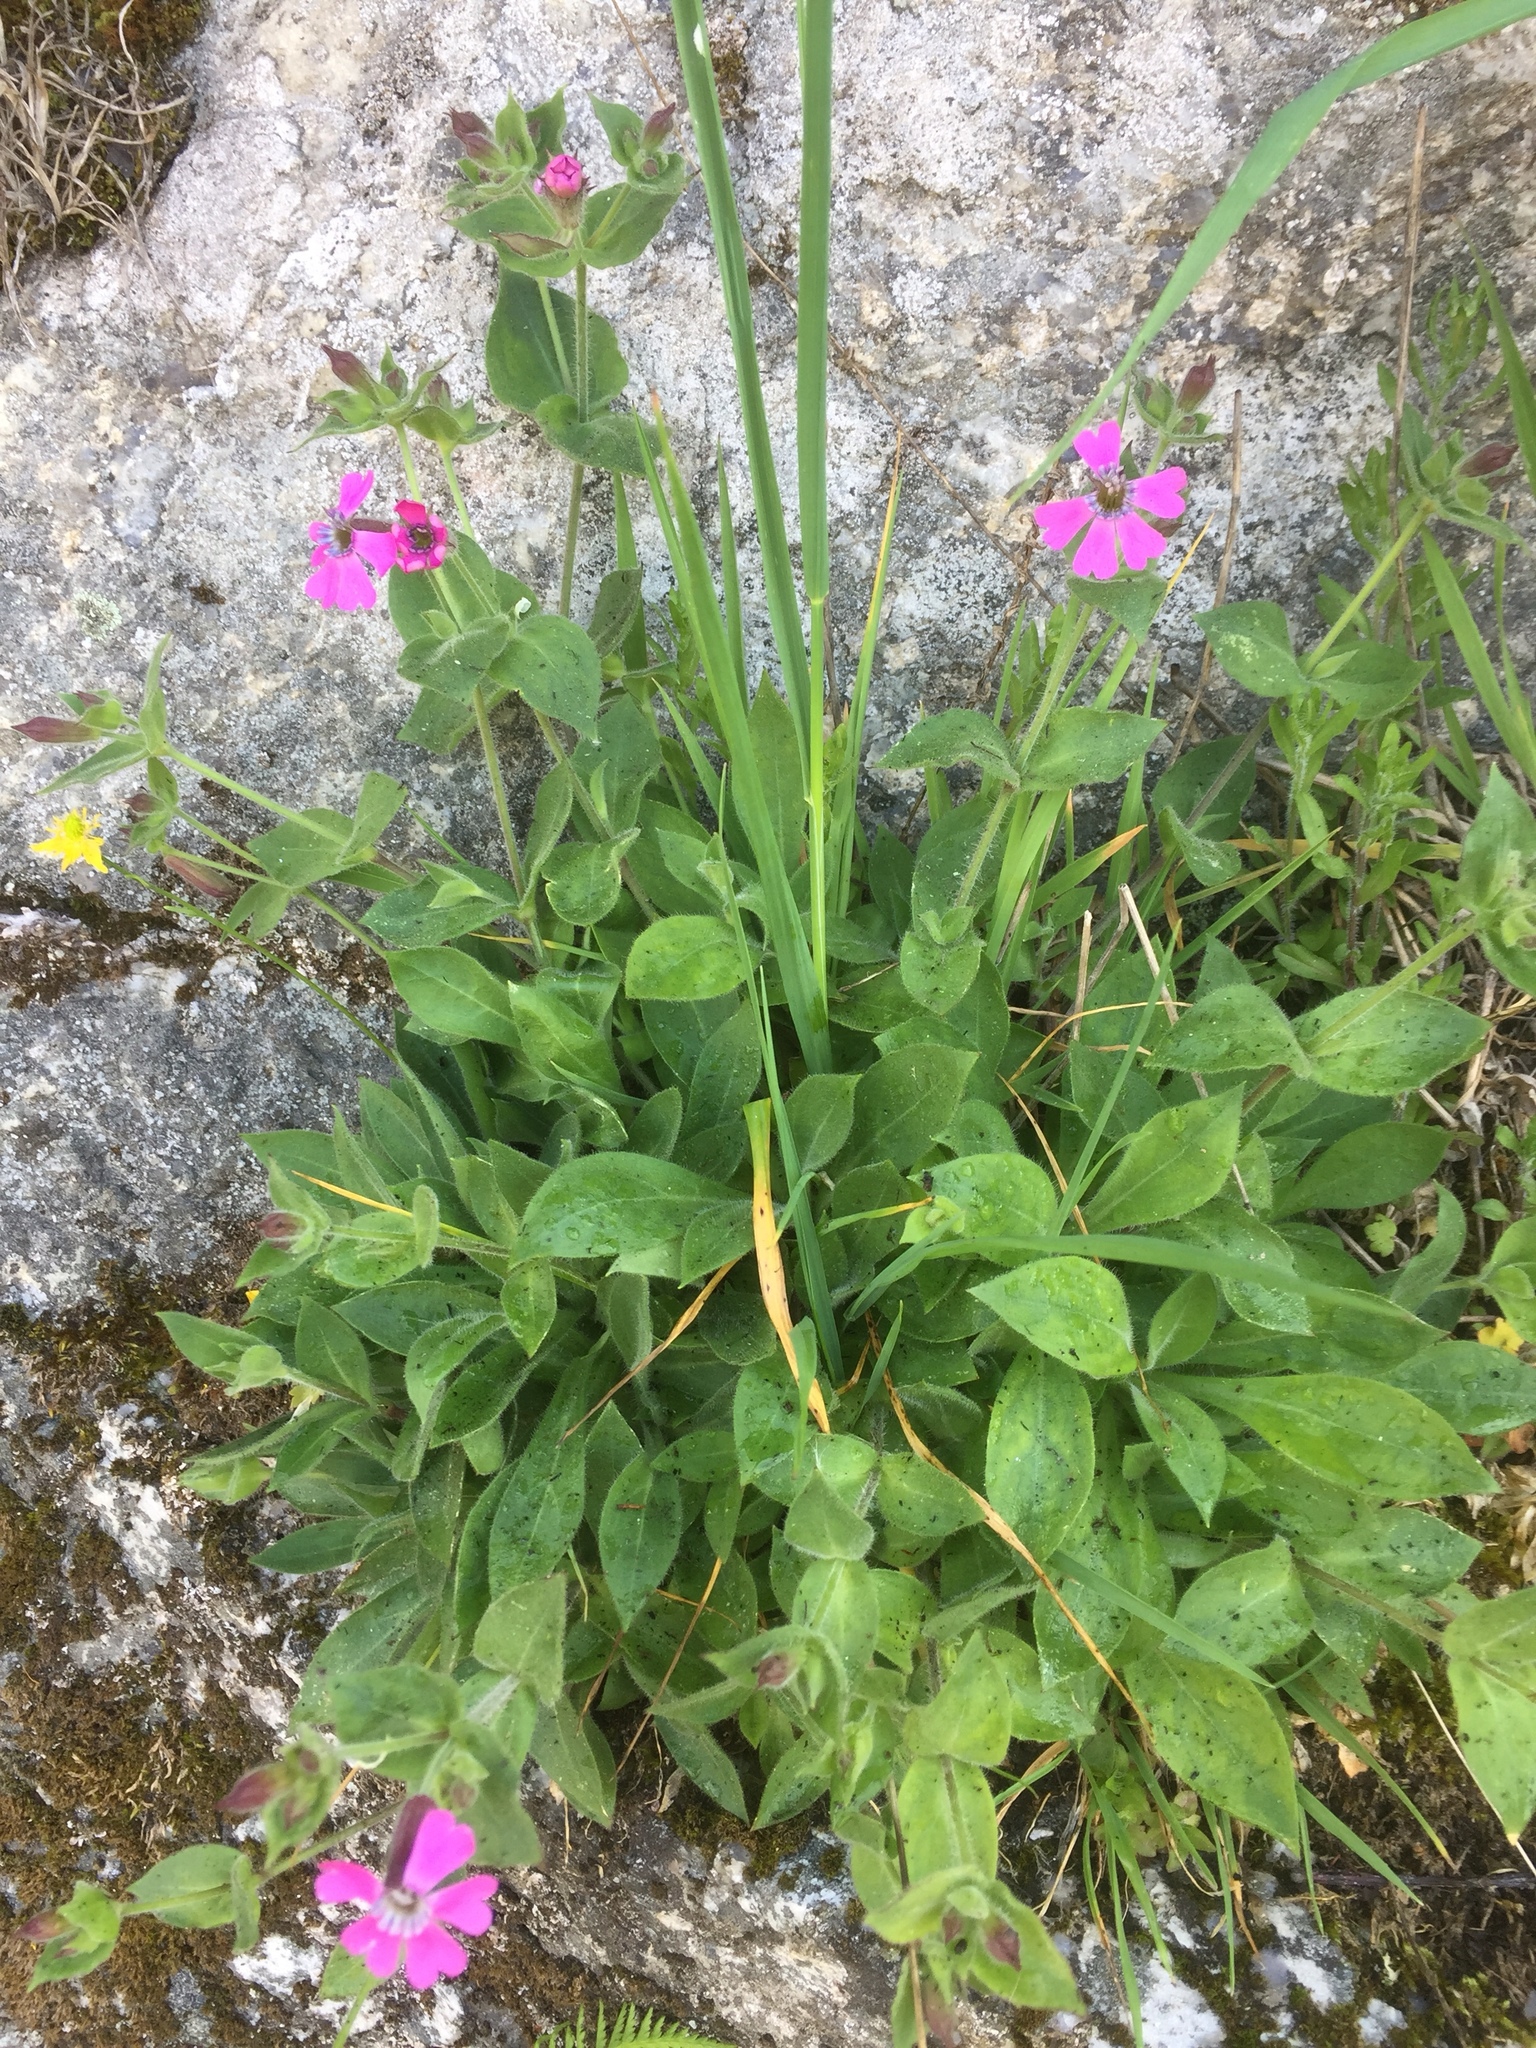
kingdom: Plantae
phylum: Tracheophyta
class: Magnoliopsida
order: Caryophyllales
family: Caryophyllaceae
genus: Silene
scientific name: Silene acutifolia
